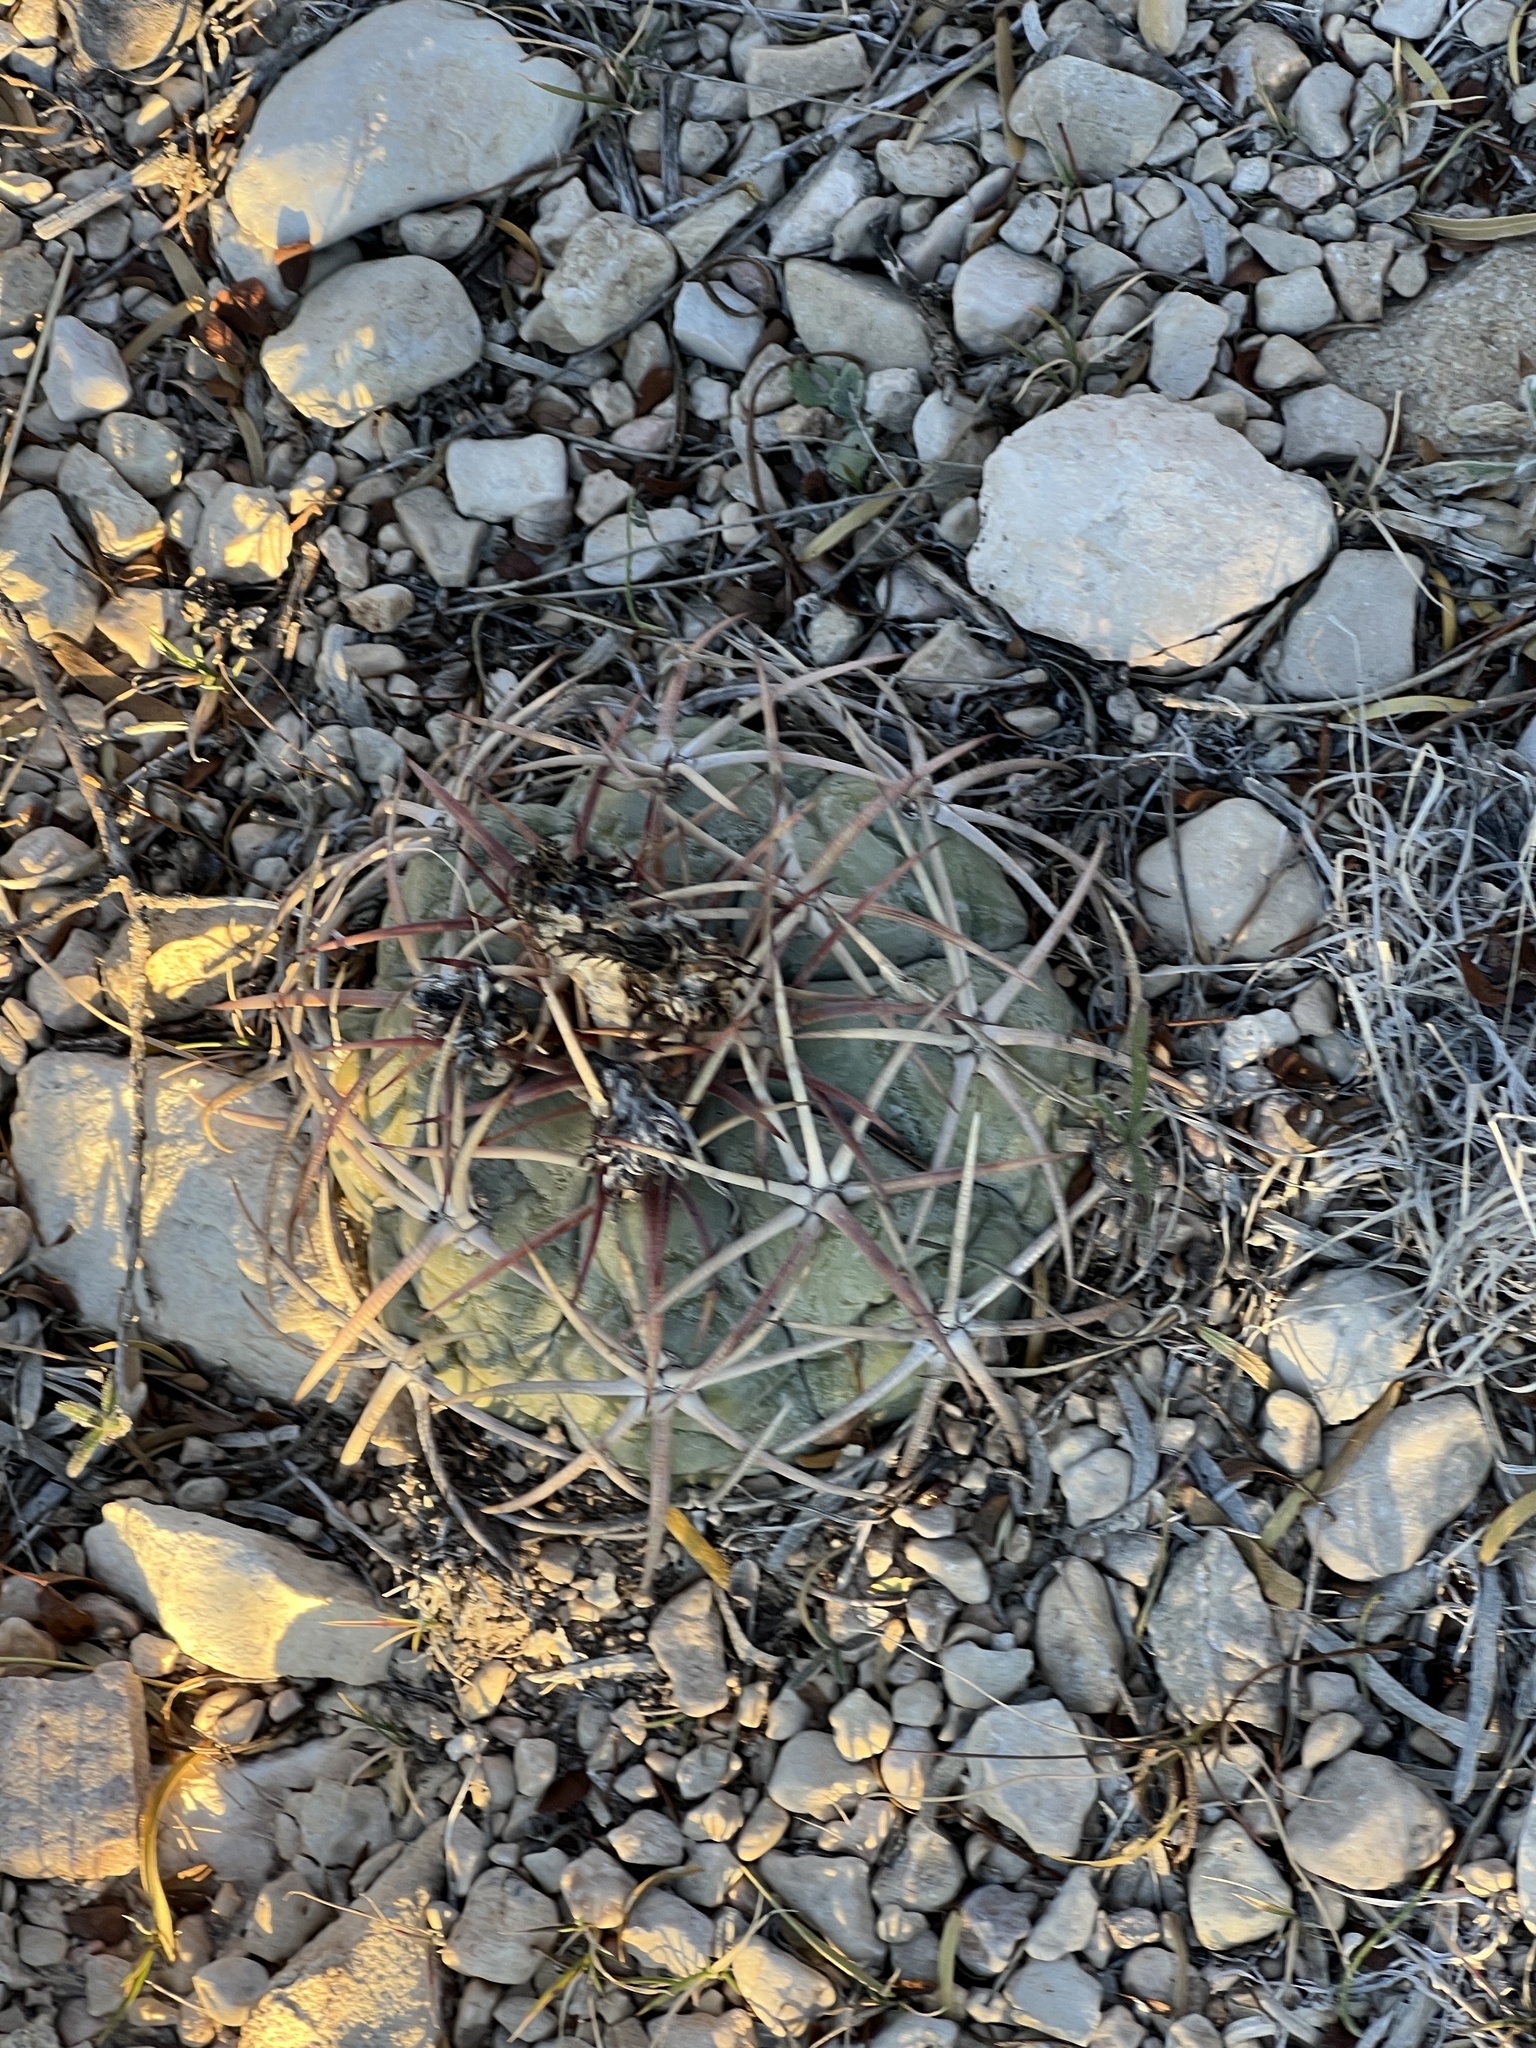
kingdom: Plantae
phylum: Tracheophyta
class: Magnoliopsida
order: Caryophyllales
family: Cactaceae
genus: Echinocactus
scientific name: Echinocactus horizonthalonius
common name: Devilshead
